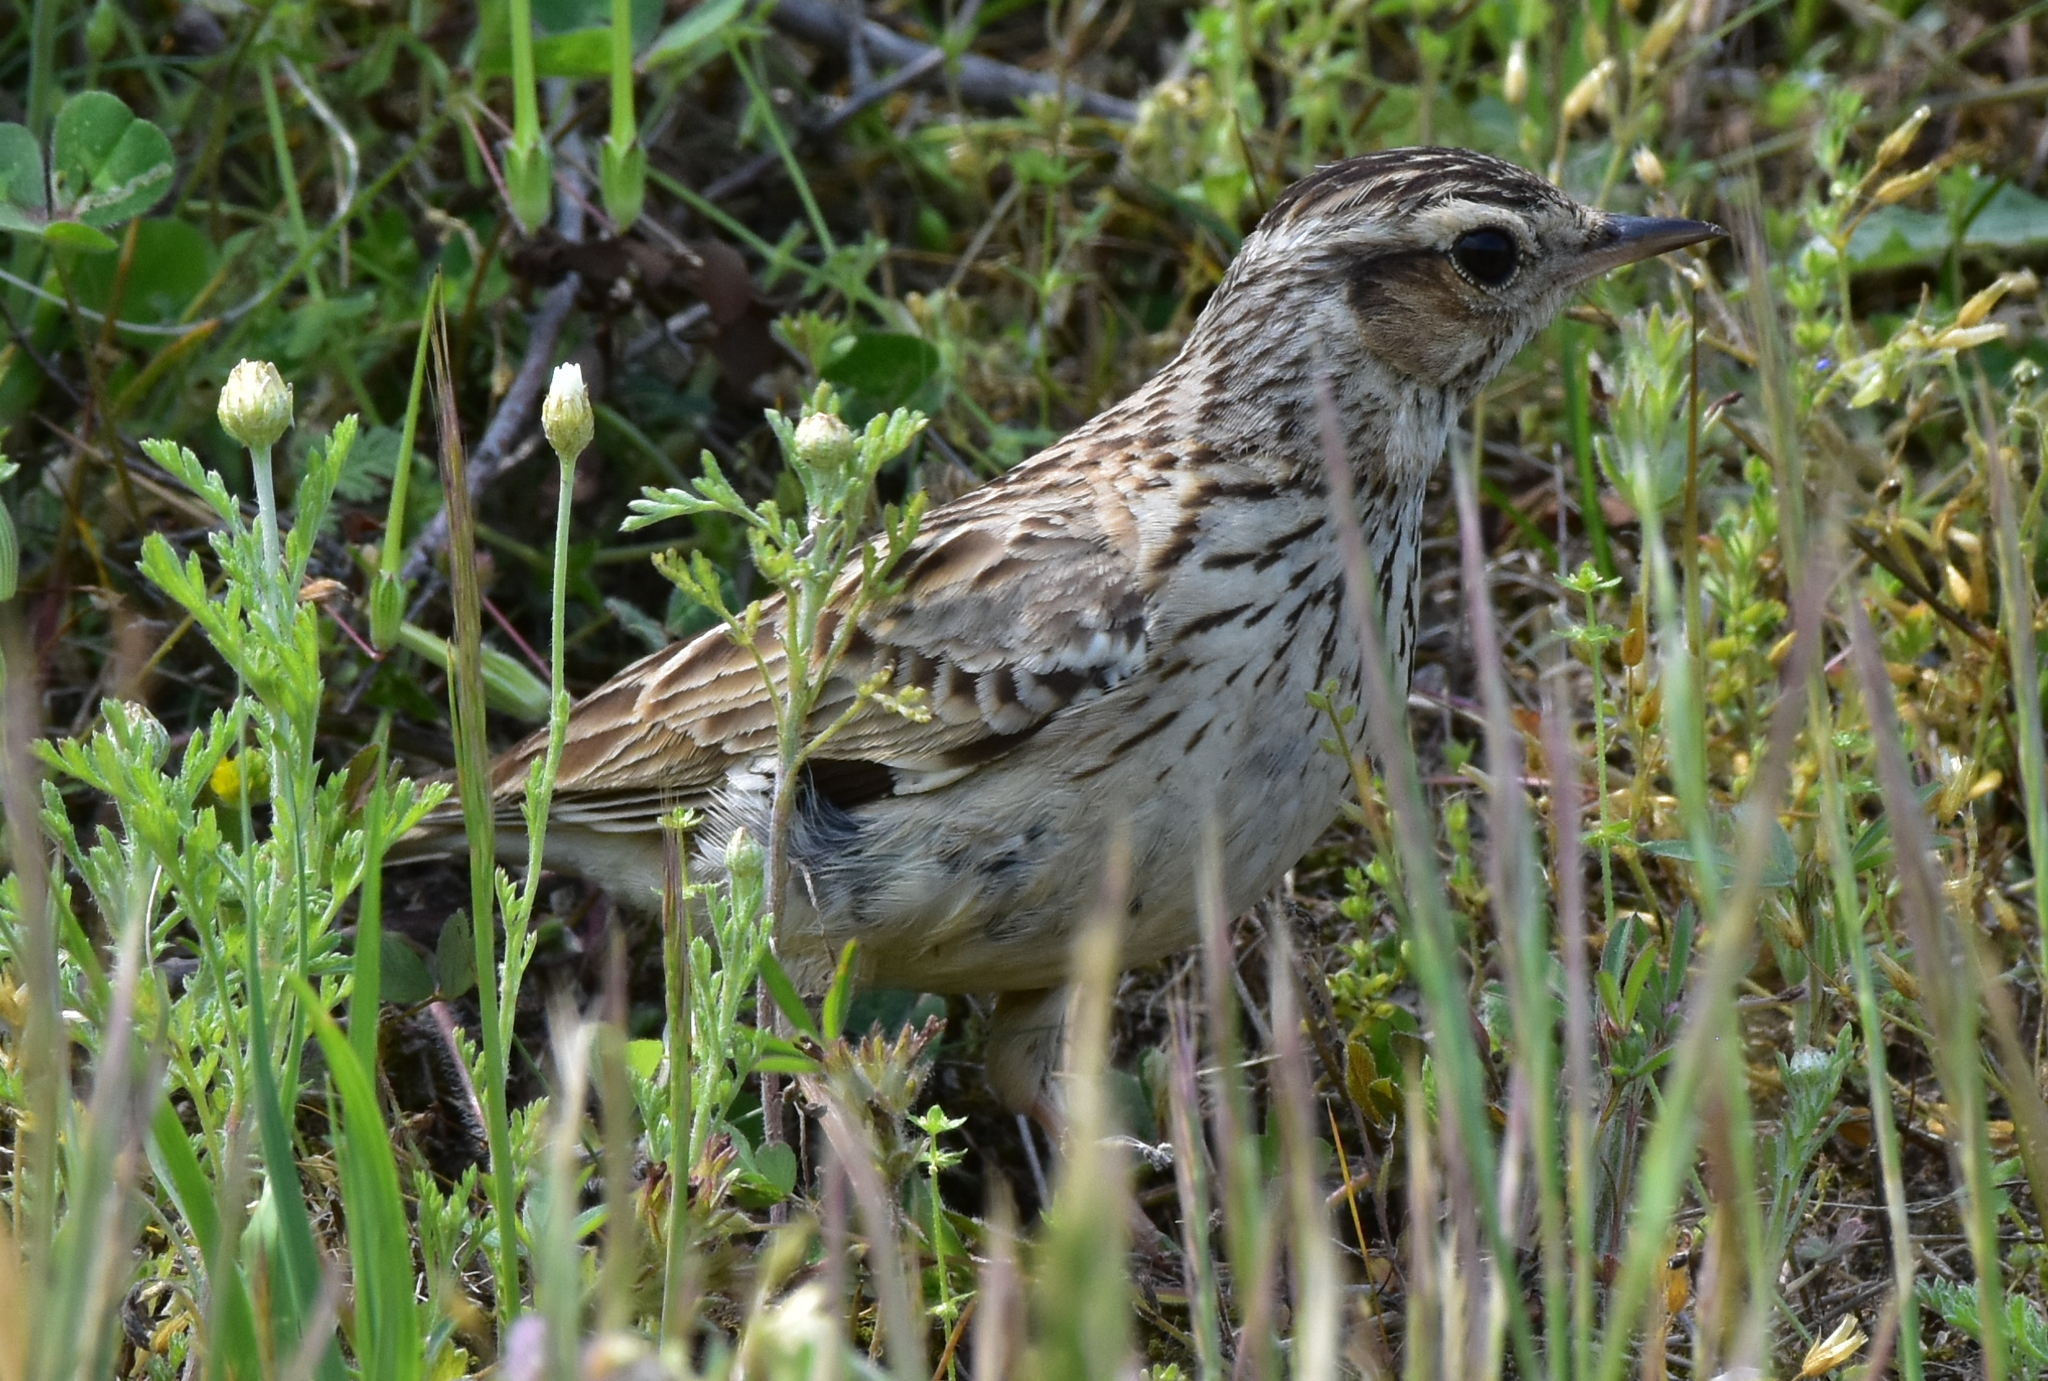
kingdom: Animalia
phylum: Chordata
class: Aves
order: Passeriformes
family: Alaudidae
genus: Lullula
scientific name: Lullula arborea
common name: Woodlark
